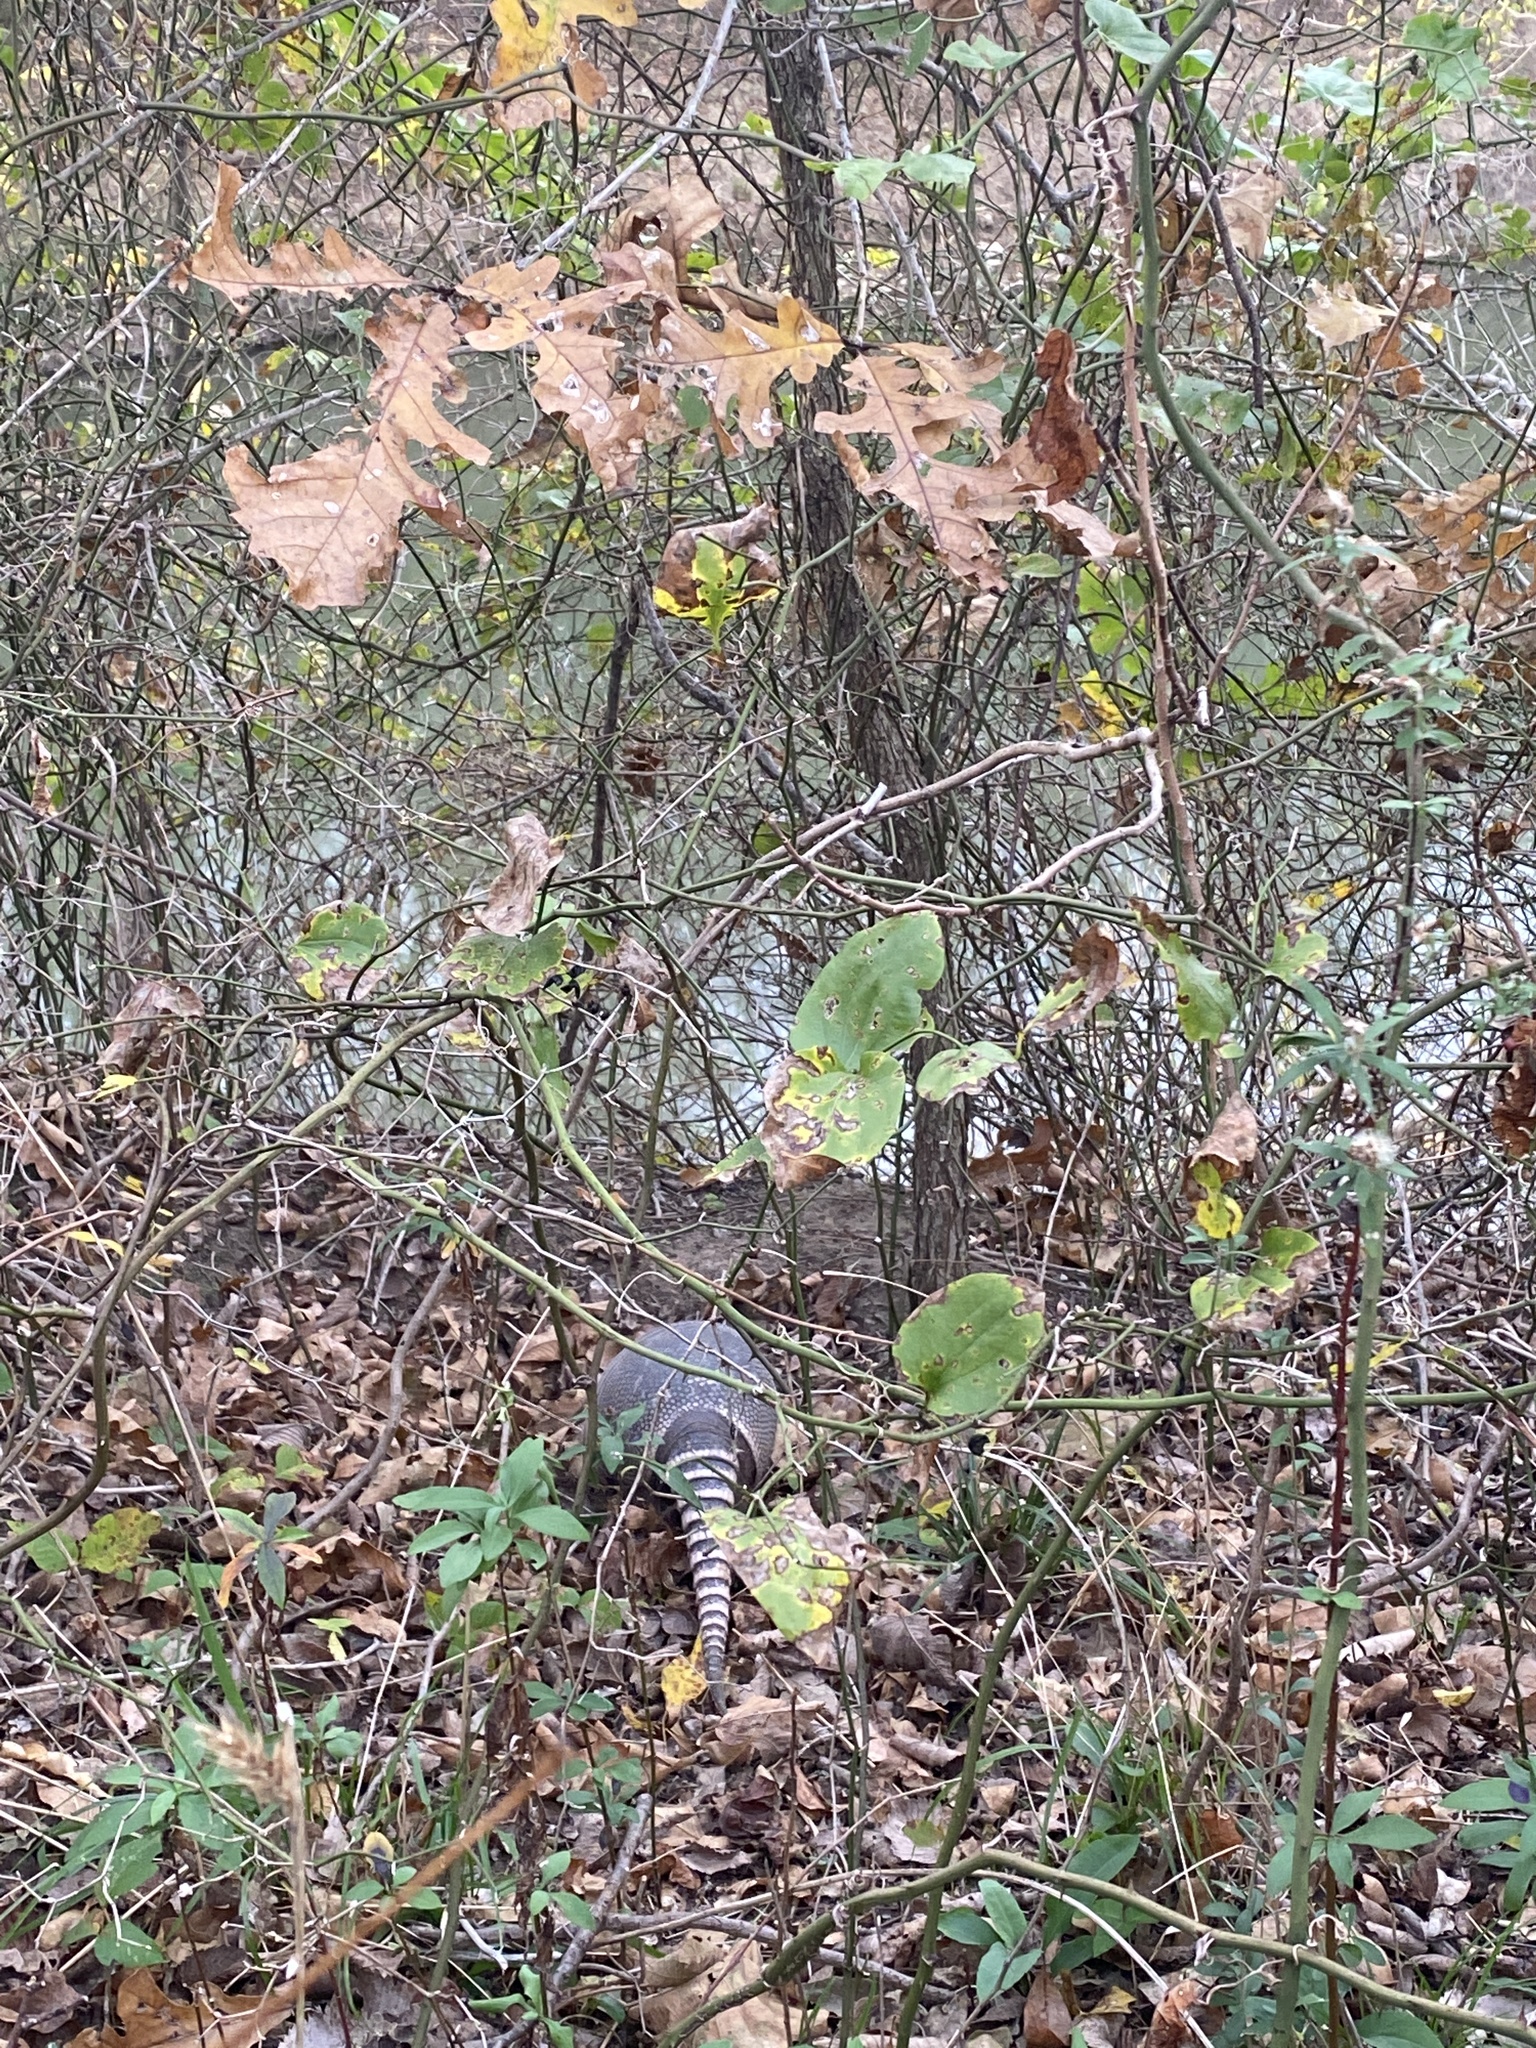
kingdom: Animalia
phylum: Chordata
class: Mammalia
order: Cingulata
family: Dasypodidae
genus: Dasypus
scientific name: Dasypus novemcinctus
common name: Nine-banded armadillo
